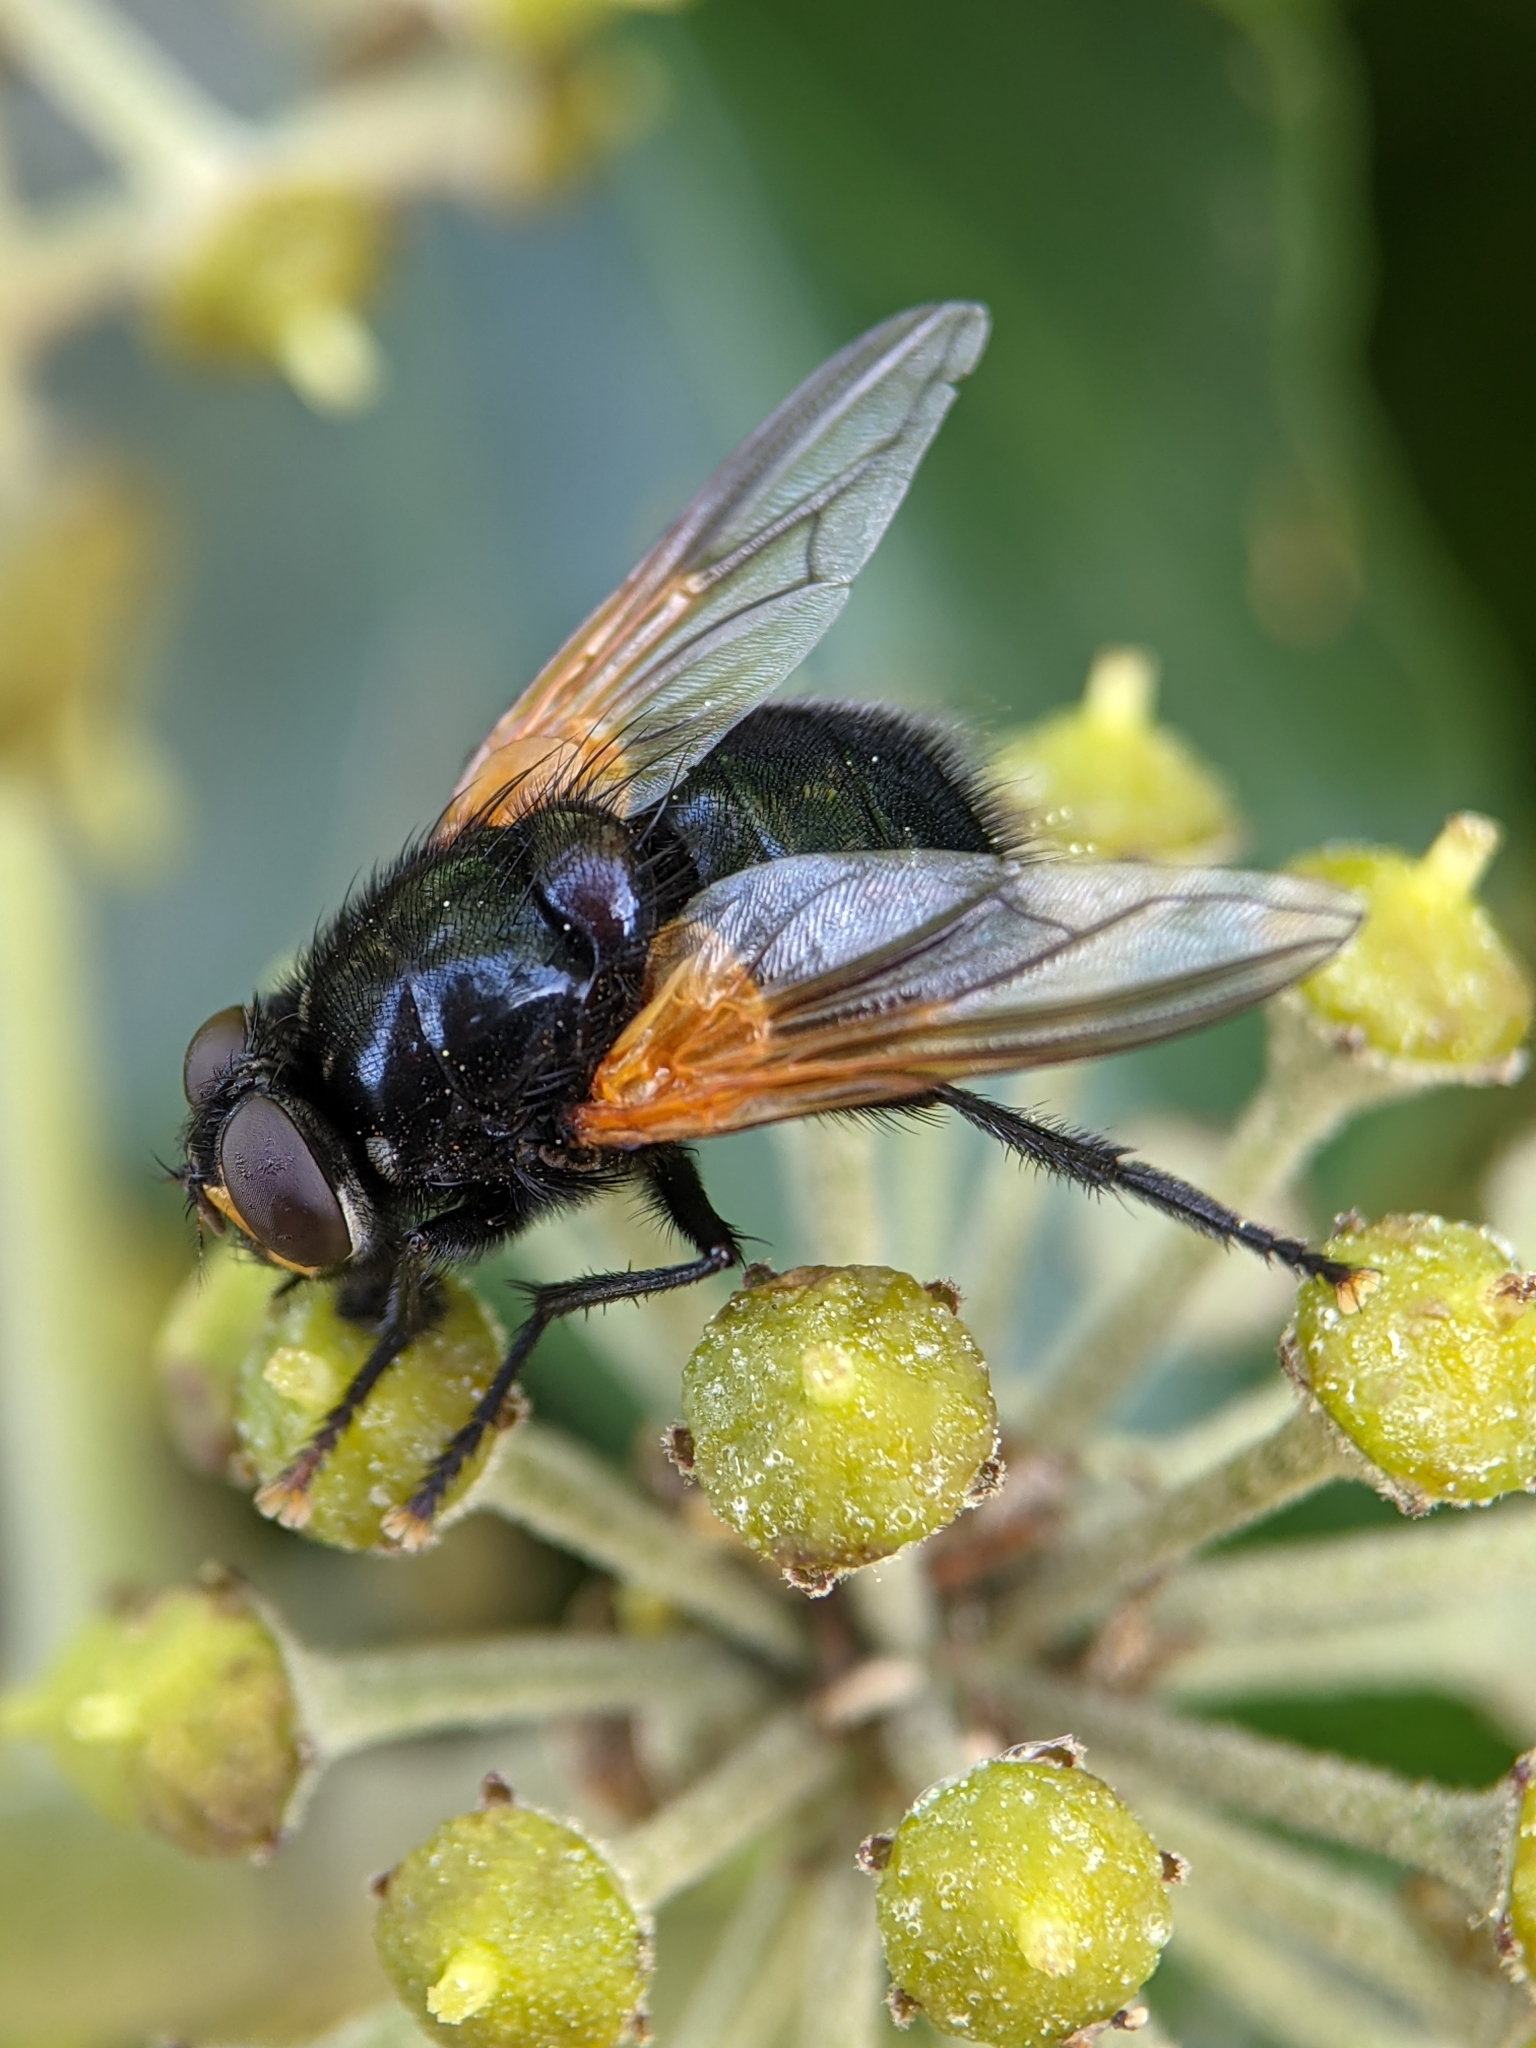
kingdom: Animalia
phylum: Arthropoda
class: Insecta
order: Diptera
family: Muscidae
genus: Mesembrina
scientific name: Mesembrina meridiana
